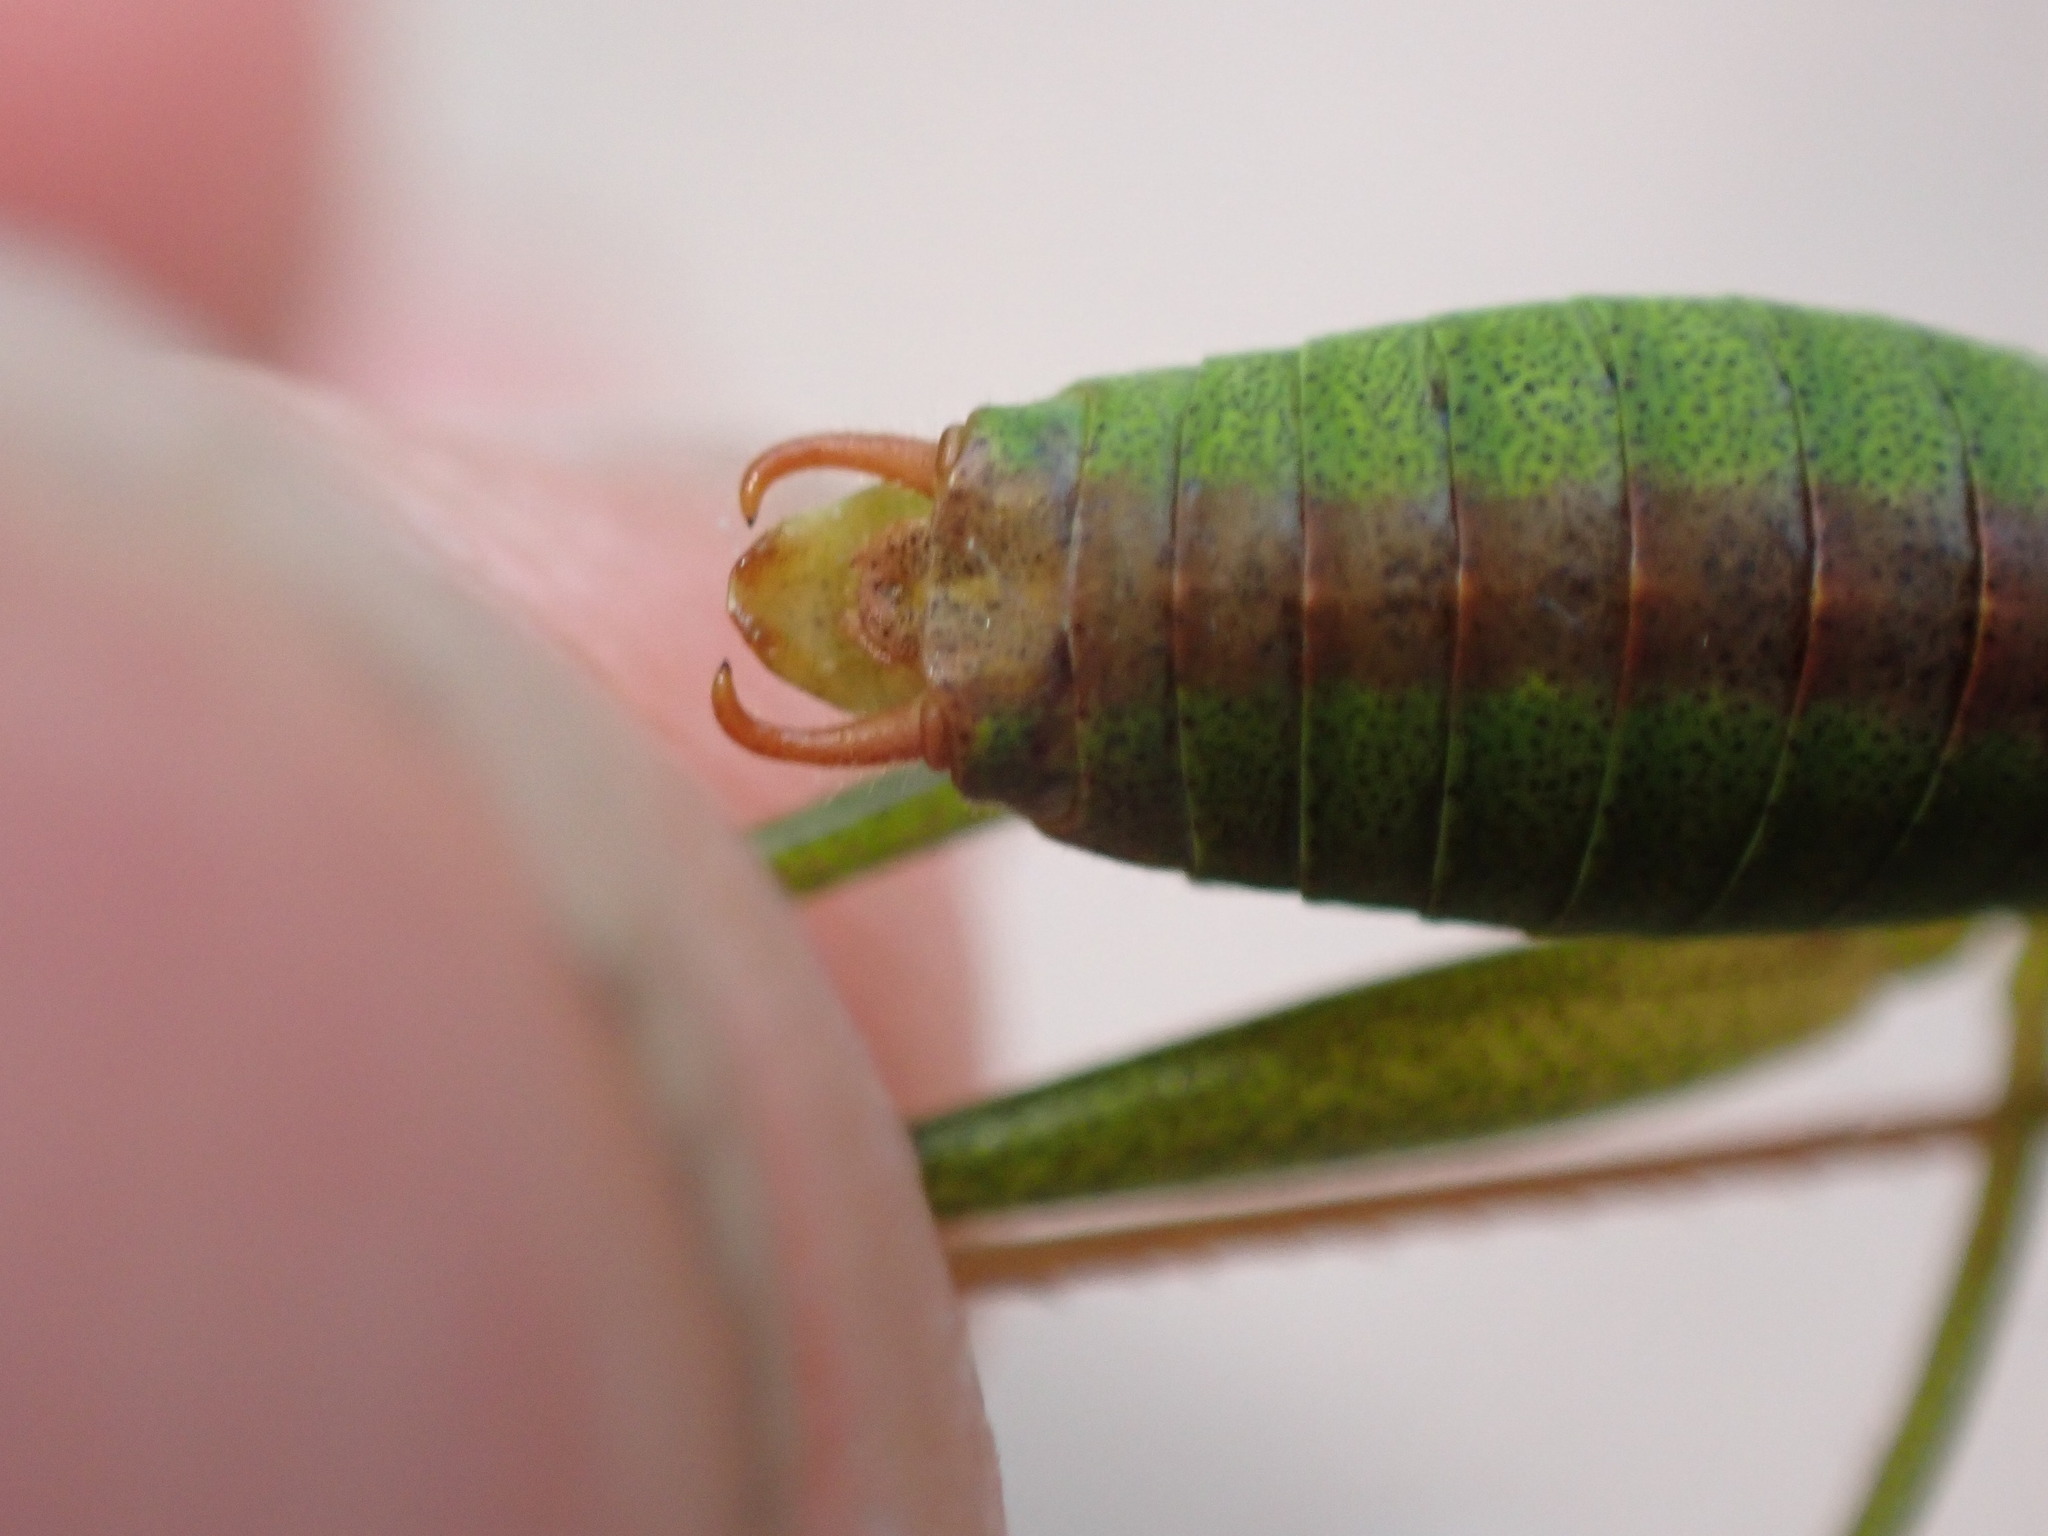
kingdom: Animalia
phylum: Arthropoda
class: Insecta
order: Orthoptera
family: Tettigoniidae
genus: Leptophyes
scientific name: Leptophyes punctatissima
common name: Speckled bush-cricket
